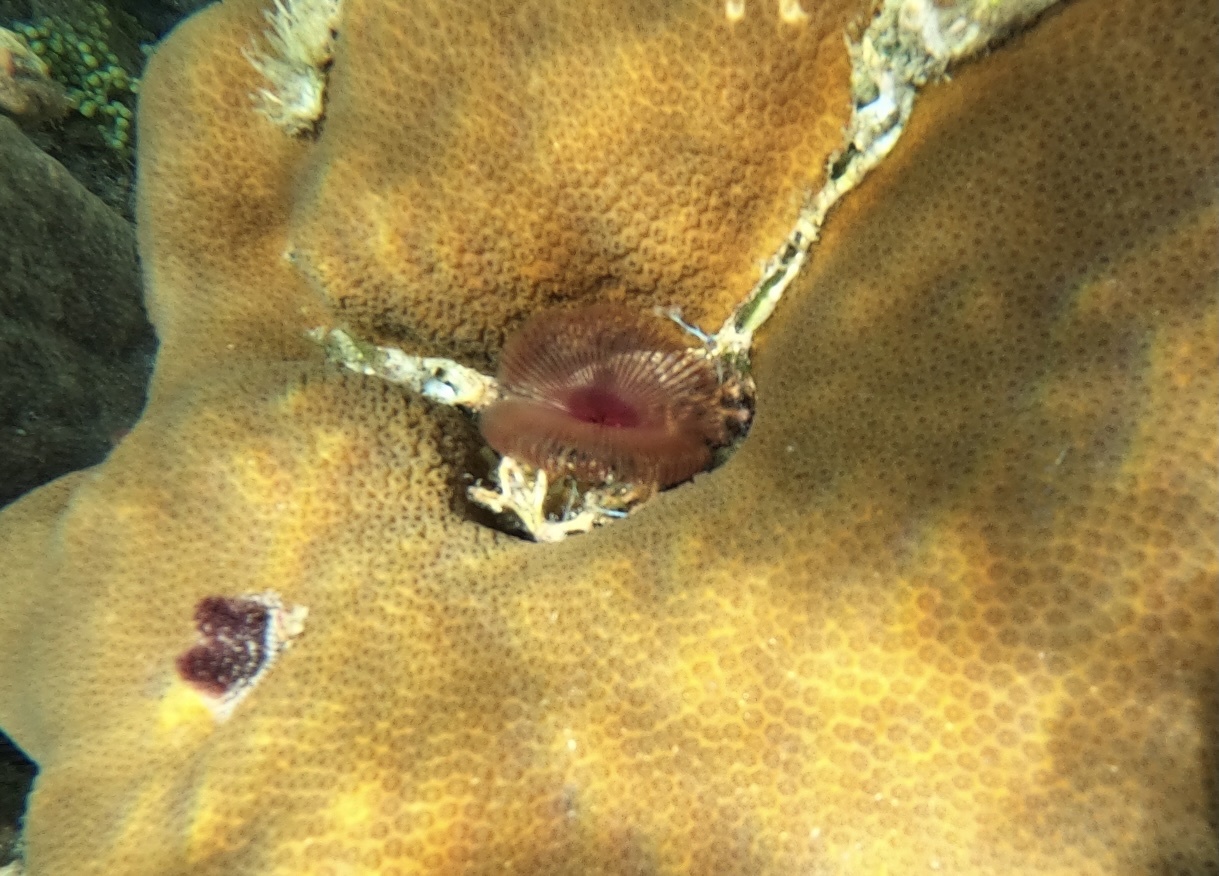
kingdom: Animalia
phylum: Annelida
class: Polychaeta
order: Sabellida
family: Sabellidae
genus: Anamobaea
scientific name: Anamobaea orstedii
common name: Split-crown feather duster
